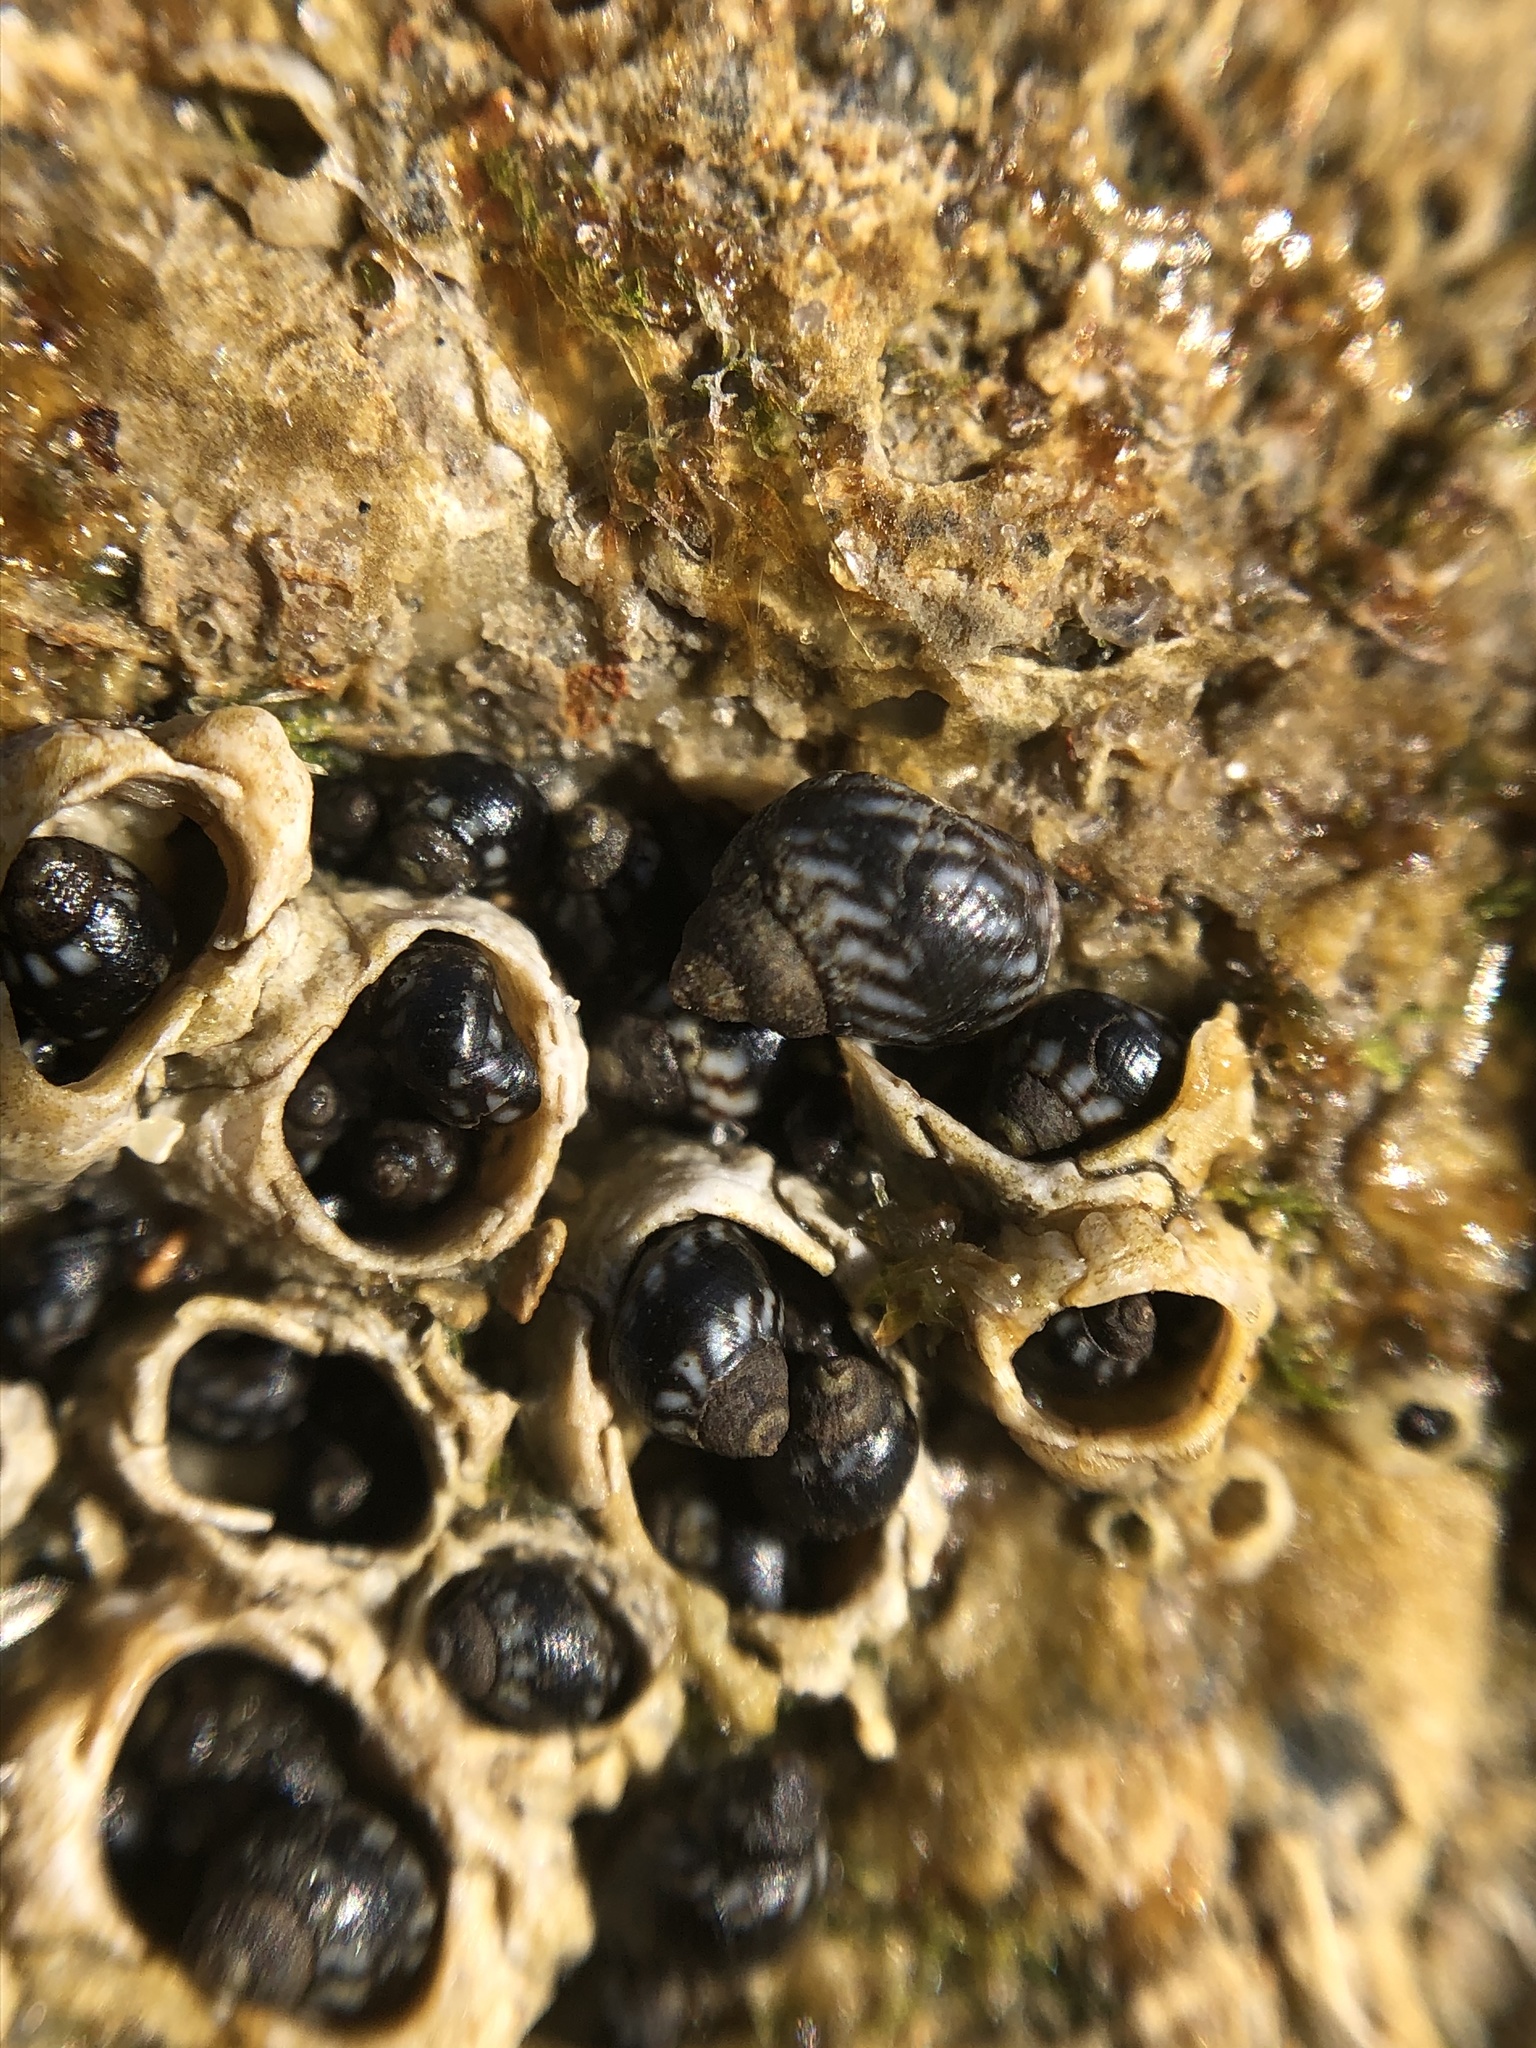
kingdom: Animalia
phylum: Mollusca
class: Gastropoda
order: Littorinimorpha
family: Littorinidae
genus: Echinolittorina
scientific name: Echinolittorina placida
